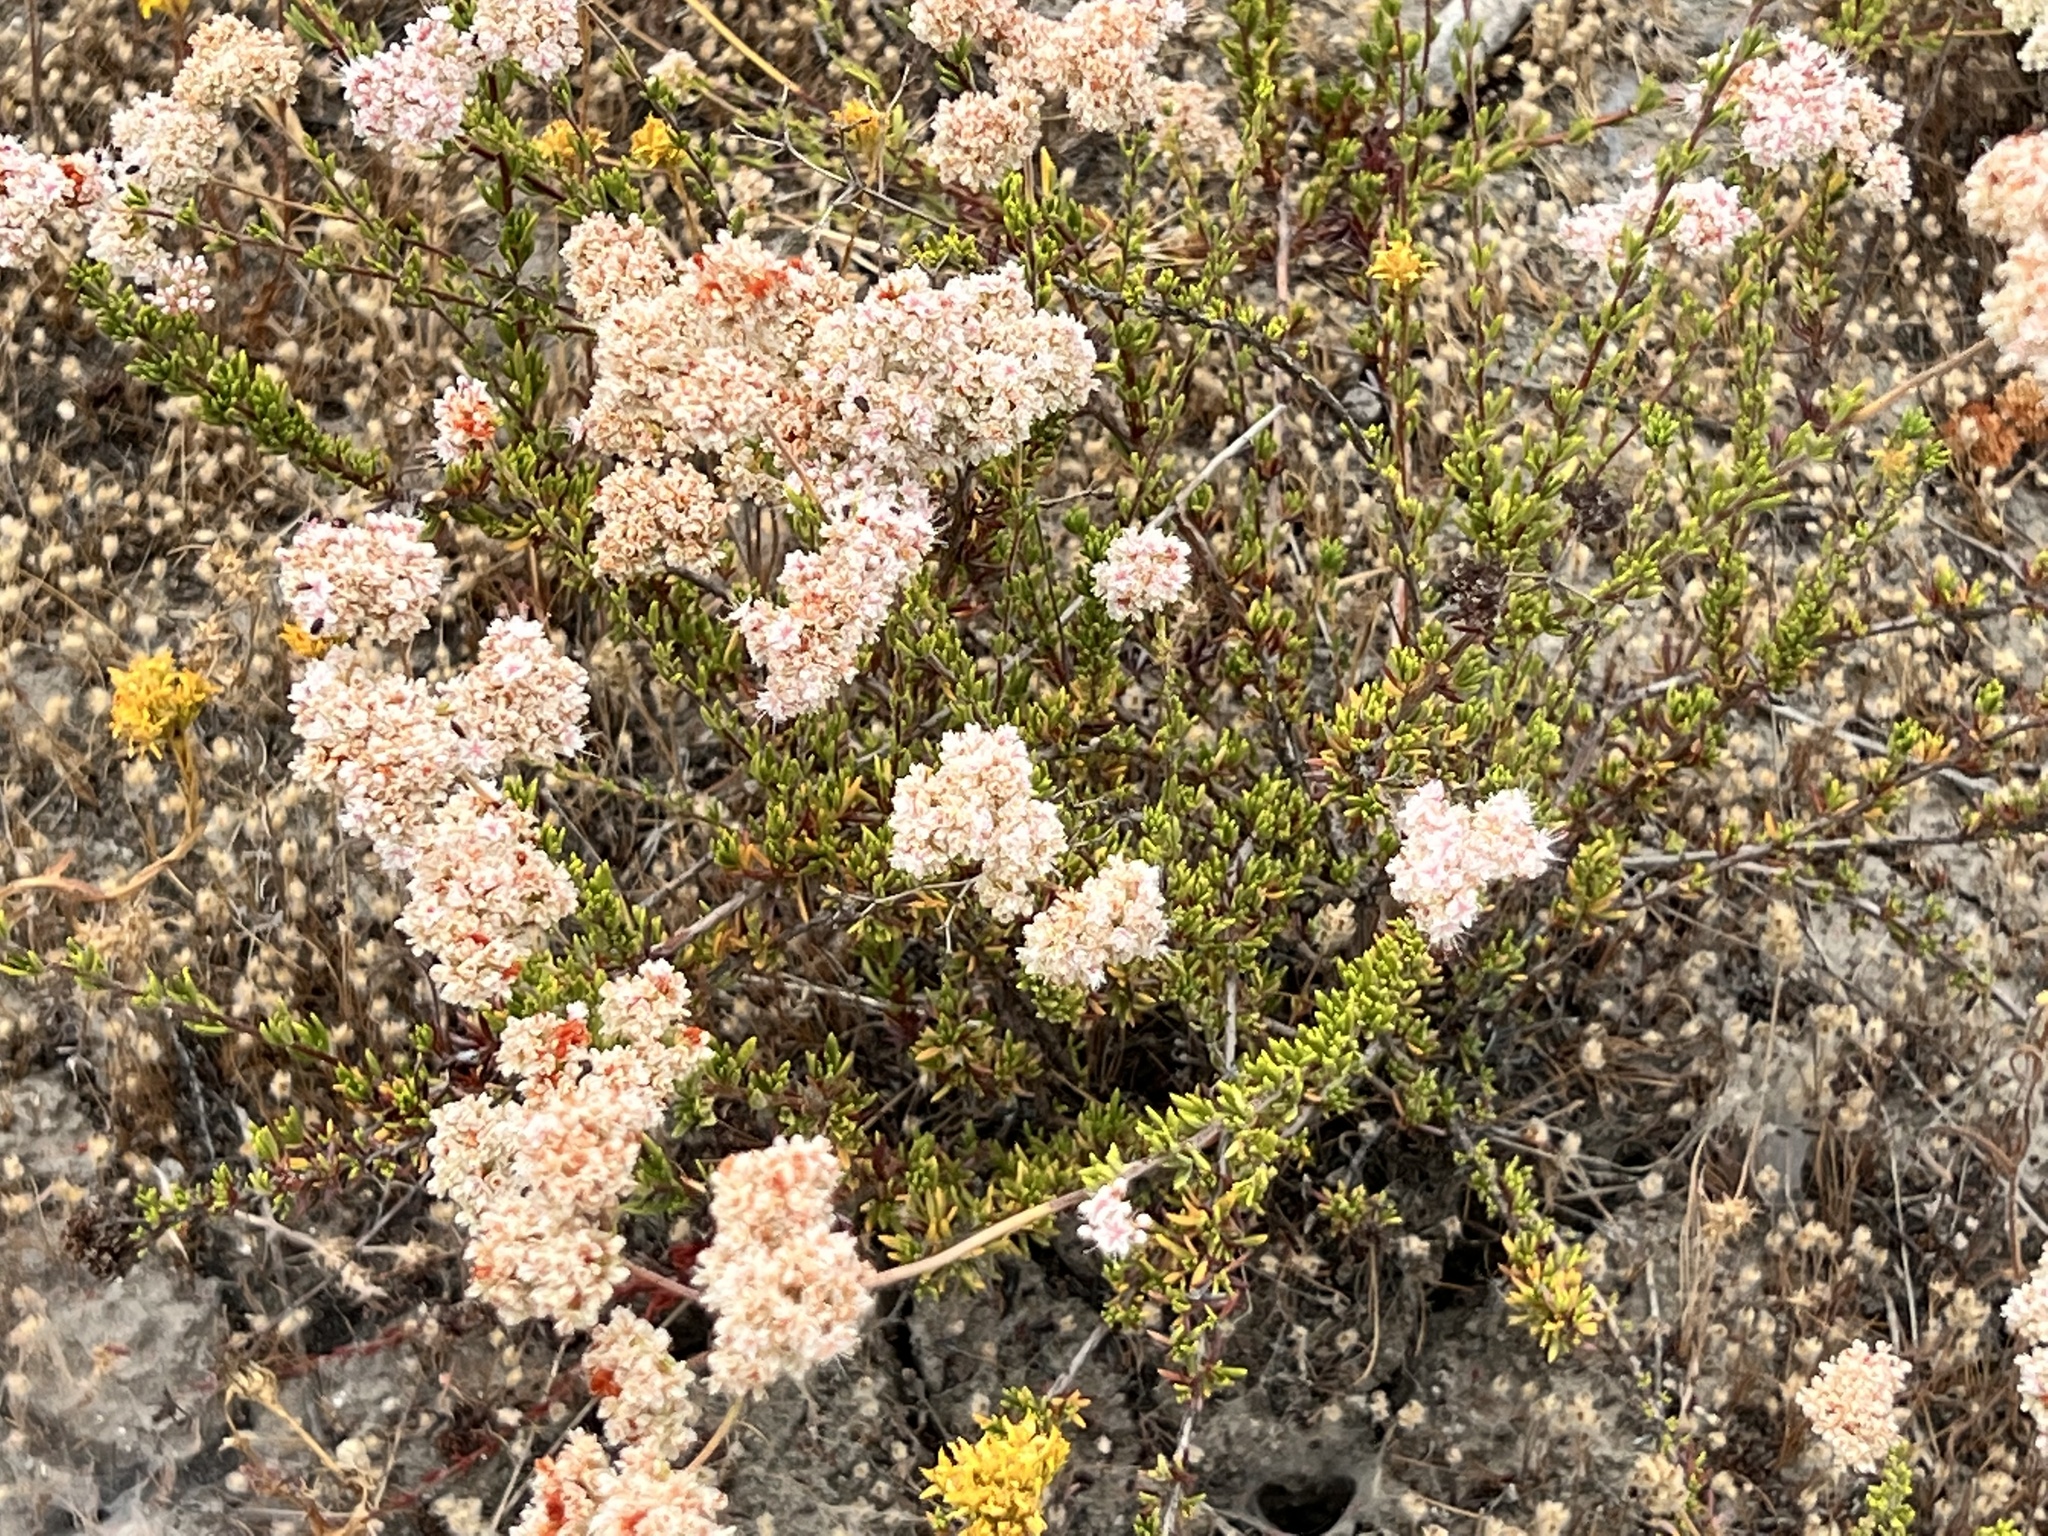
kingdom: Plantae
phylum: Tracheophyta
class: Magnoliopsida
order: Caryophyllales
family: Polygonaceae
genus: Eriogonum
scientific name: Eriogonum fasciculatum
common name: California wild buckwheat
